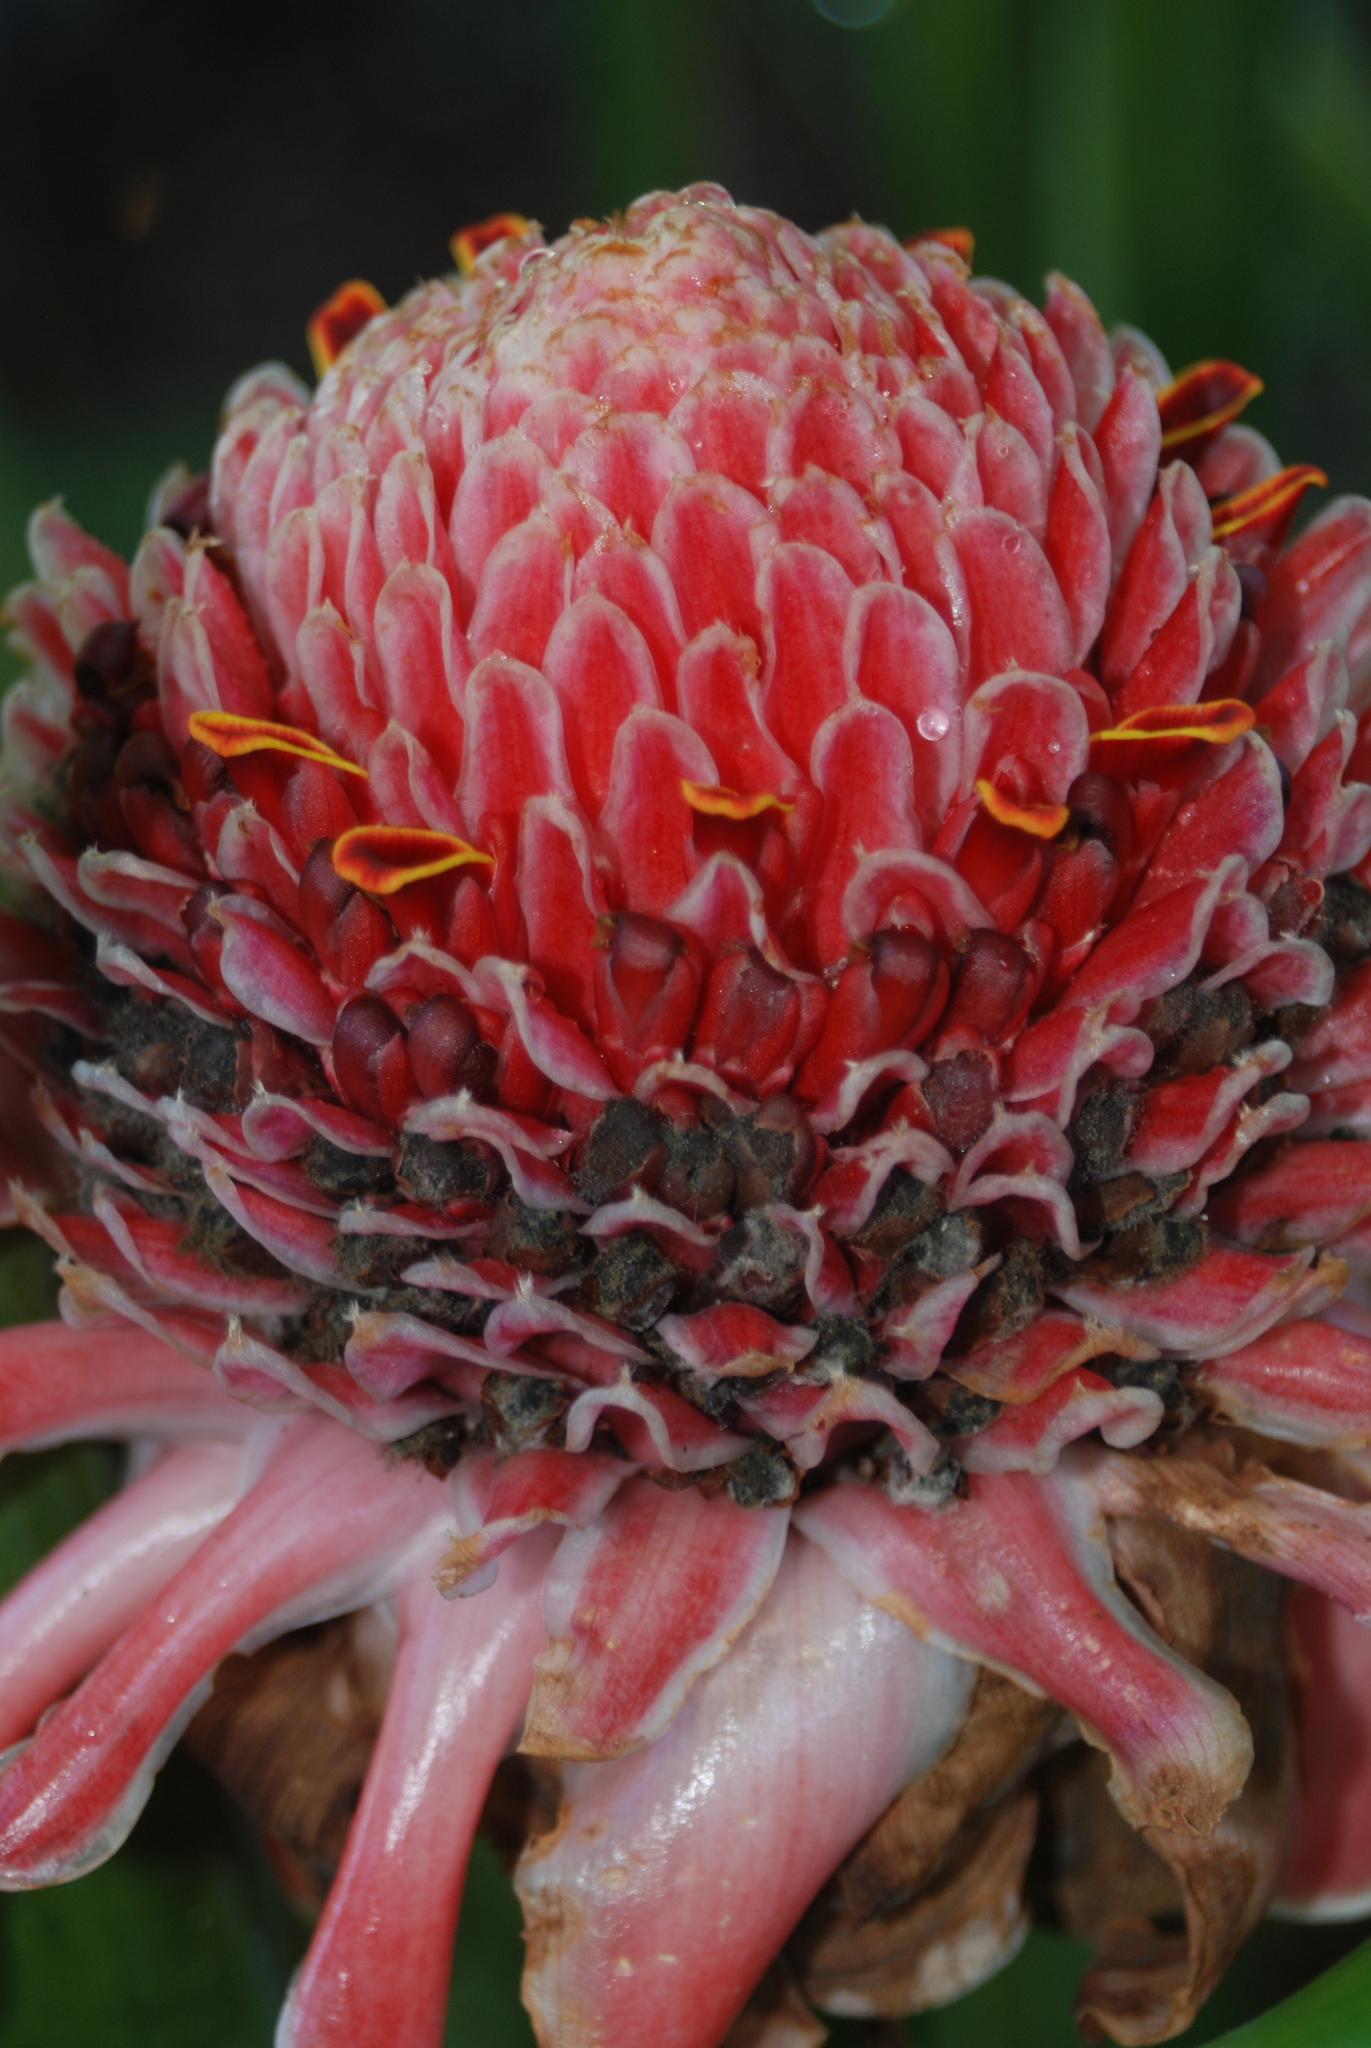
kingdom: Plantae
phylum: Tracheophyta
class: Liliopsida
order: Zingiberales
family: Zingiberaceae
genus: Etlingera
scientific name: Etlingera elatior
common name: Philippine waxflower
